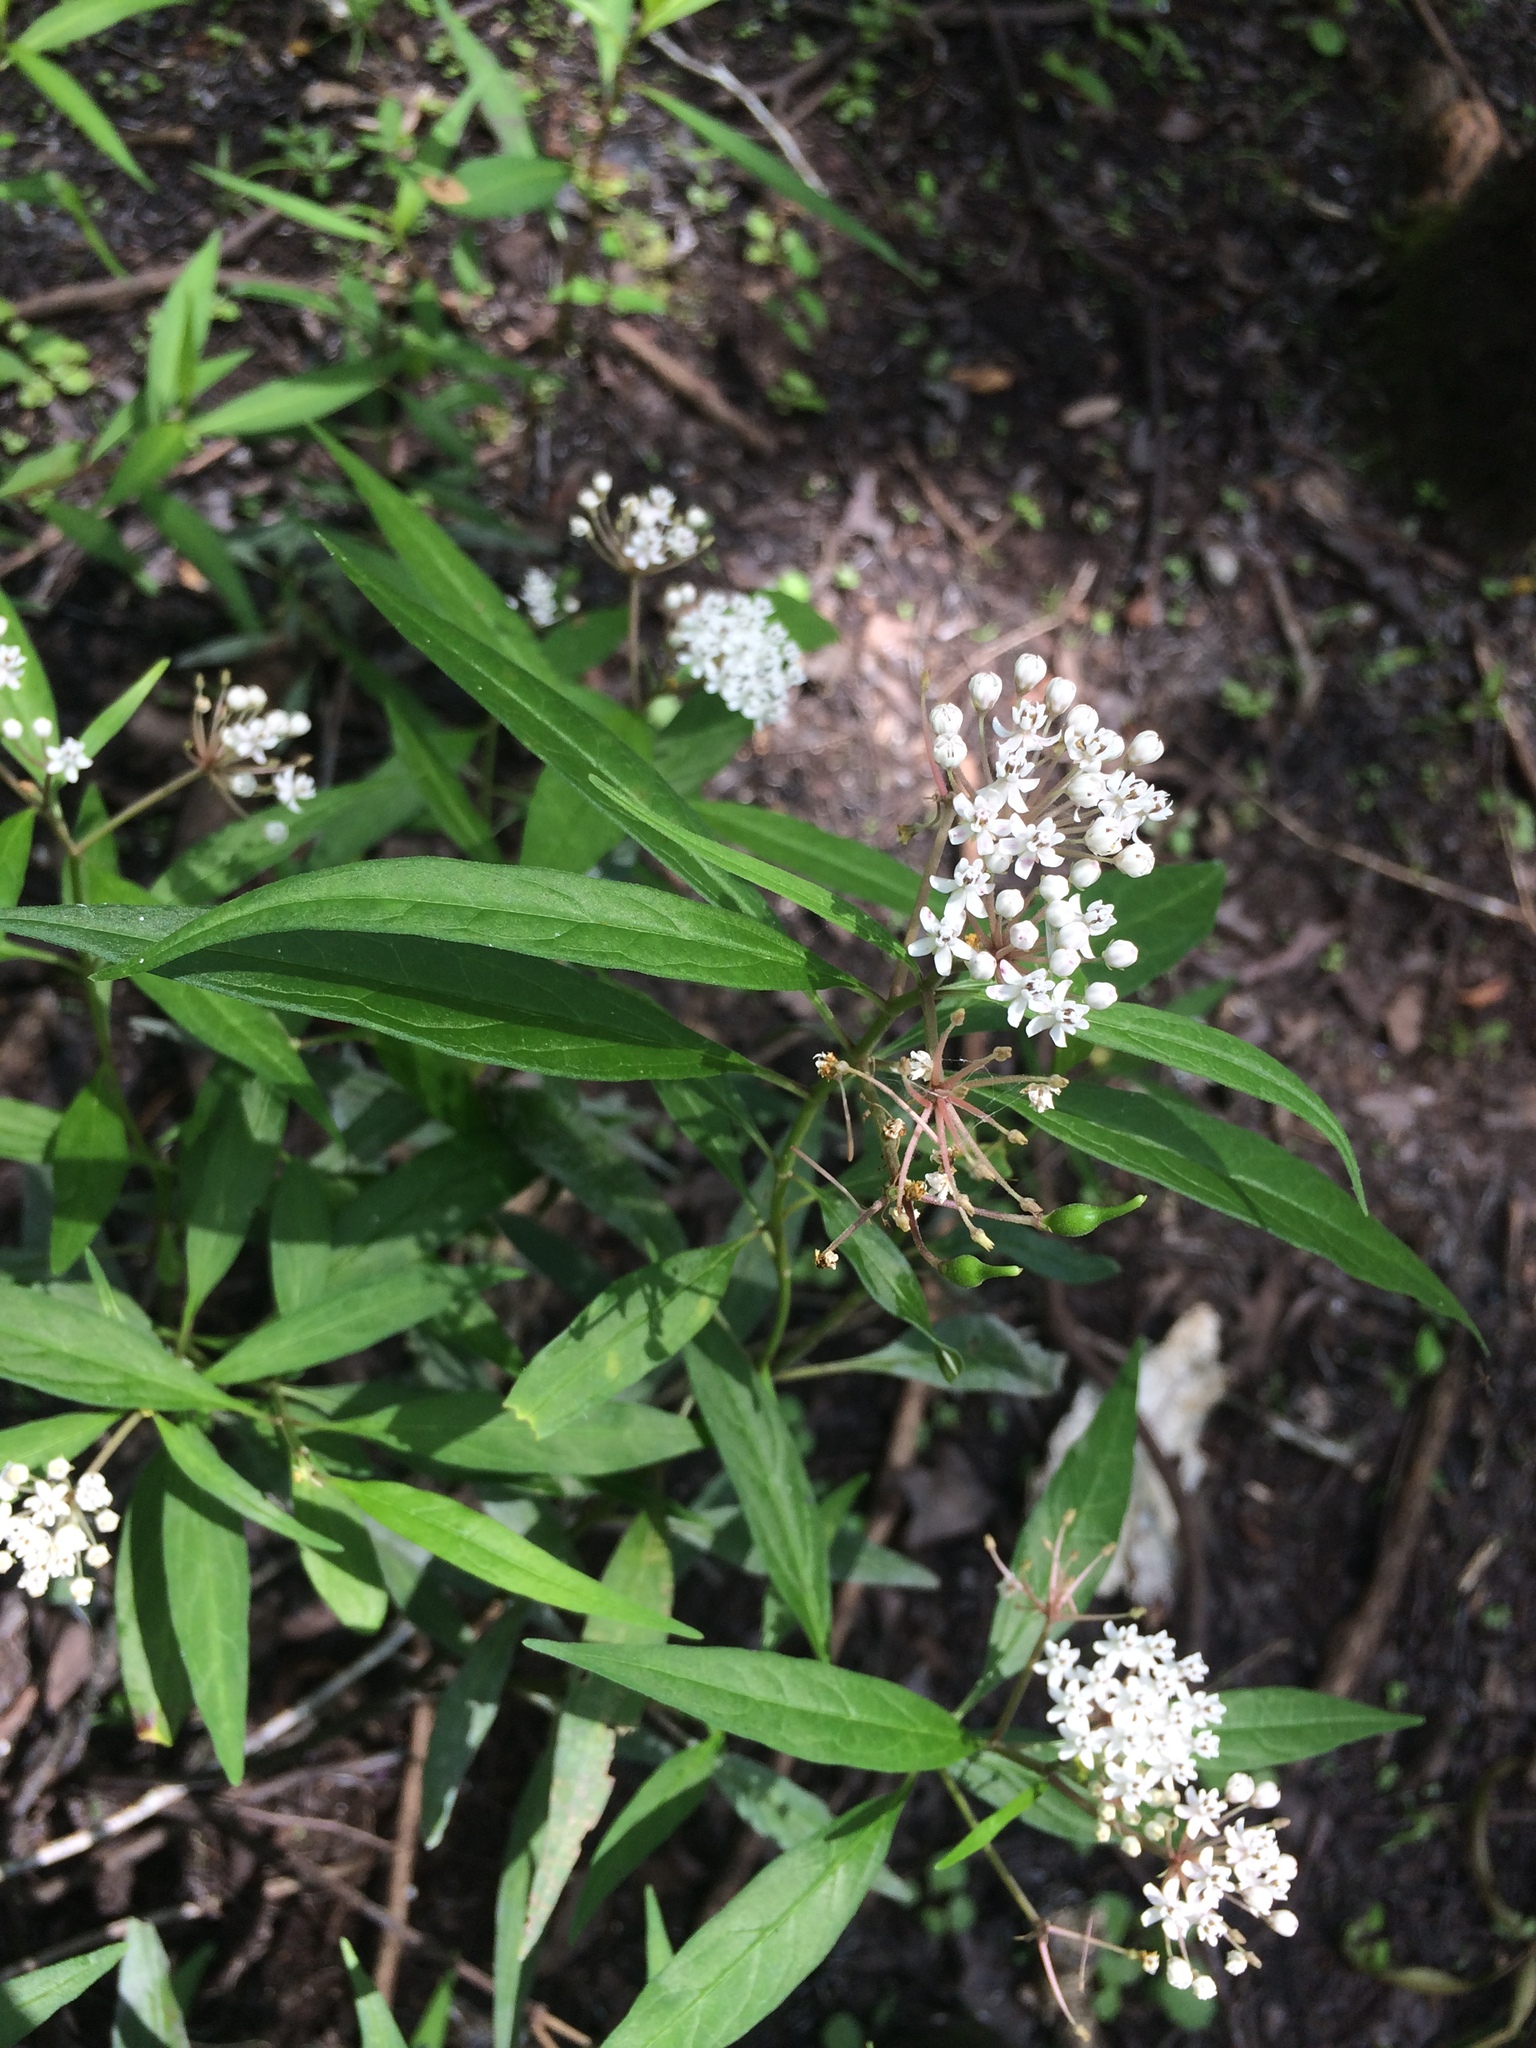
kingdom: Plantae
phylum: Tracheophyta
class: Magnoliopsida
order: Gentianales
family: Apocynaceae
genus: Asclepias
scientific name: Asclepias perennis
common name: Smooth-seed milkweed
